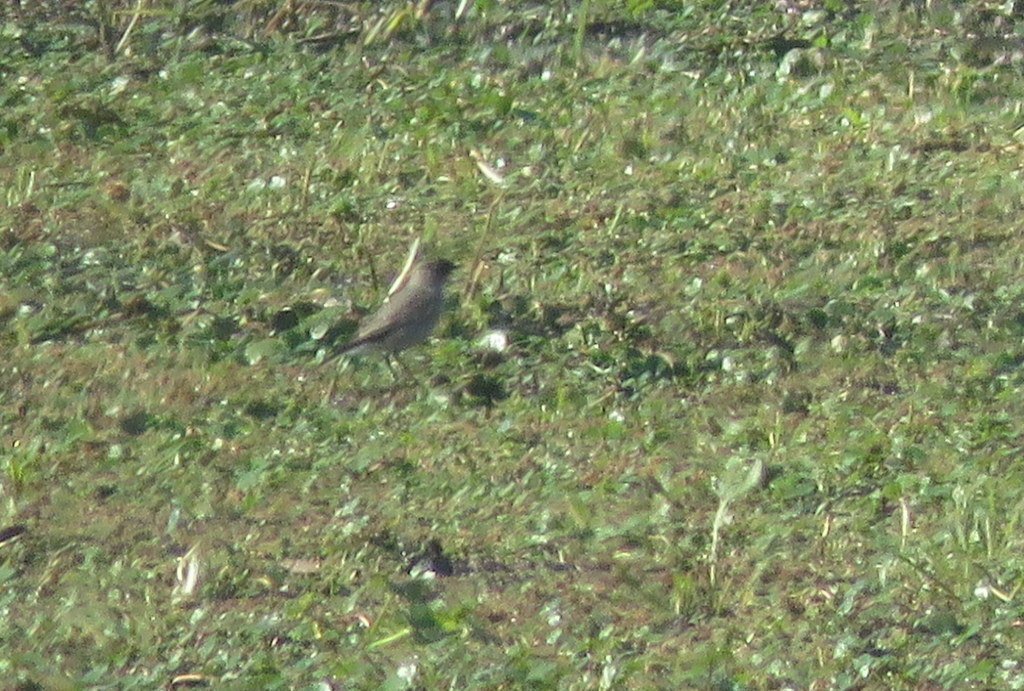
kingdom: Animalia
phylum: Chordata
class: Aves
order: Passeriformes
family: Tyrannidae
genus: Muscisaxicola
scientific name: Muscisaxicola maclovianus
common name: Dark-faced ground tyrant
